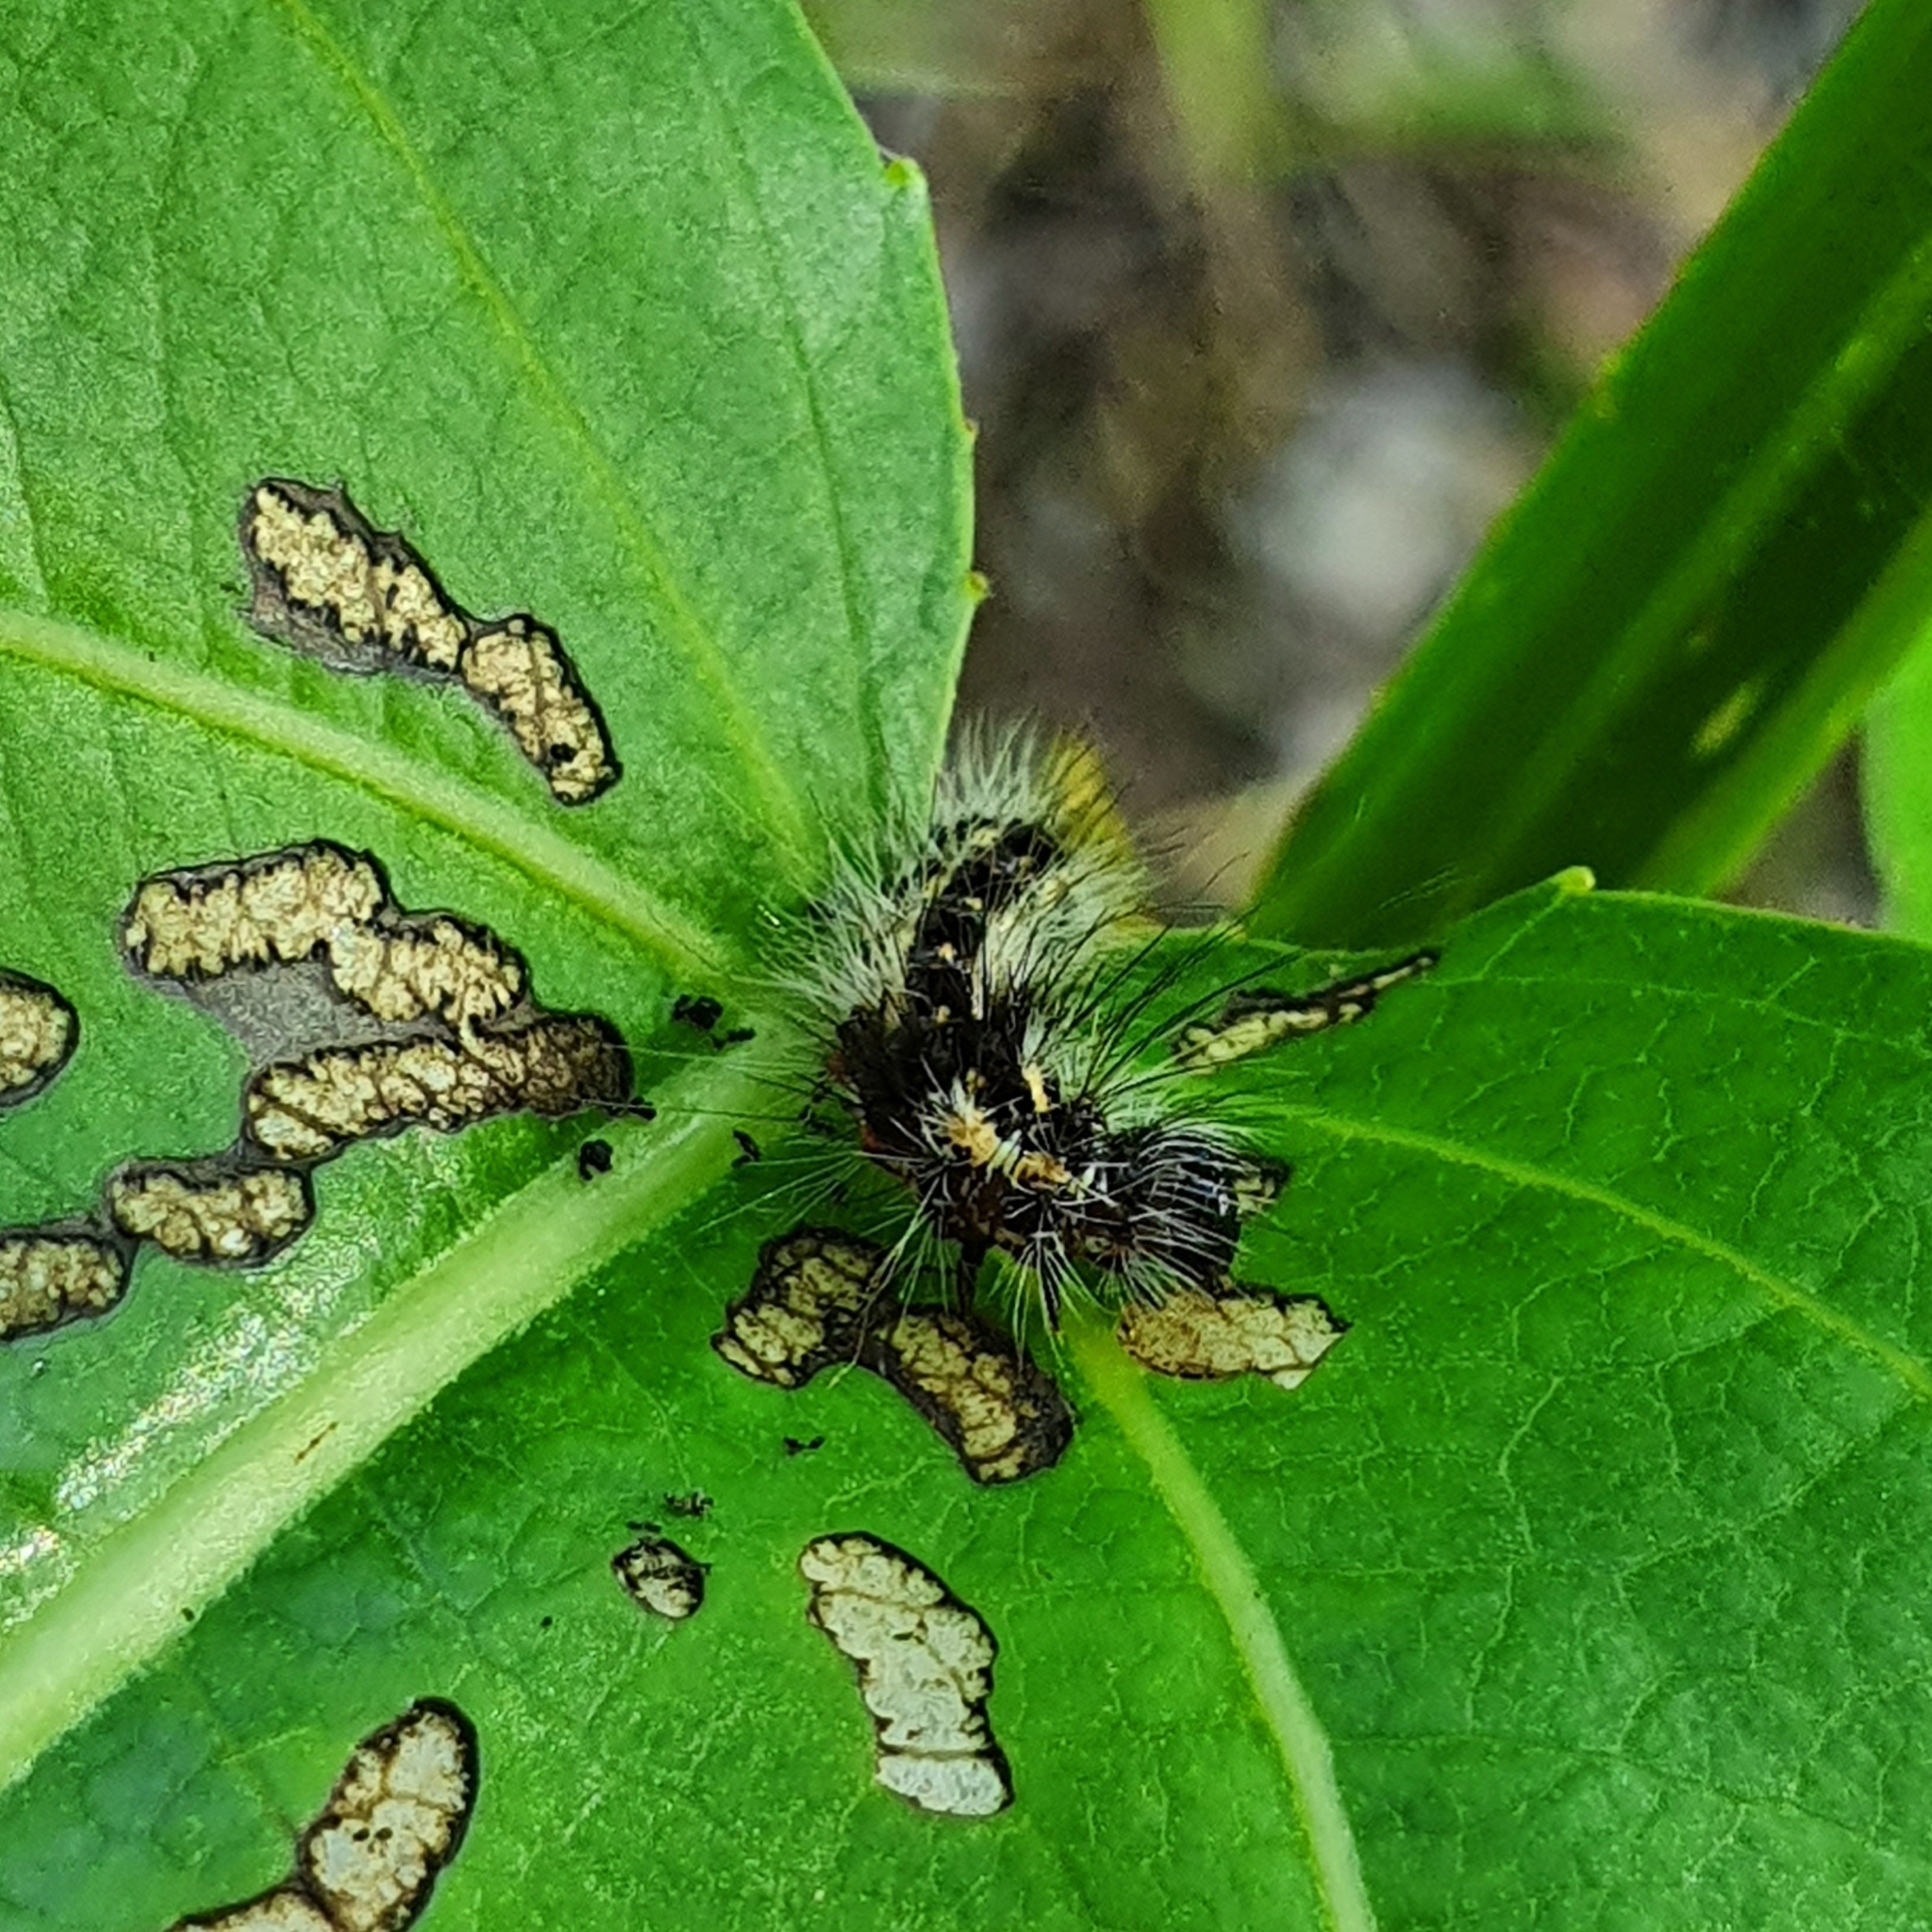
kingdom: Animalia
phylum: Arthropoda
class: Insecta
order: Lepidoptera
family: Noctuidae
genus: Acronicta
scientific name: Acronicta rumicis
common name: Knot grass
